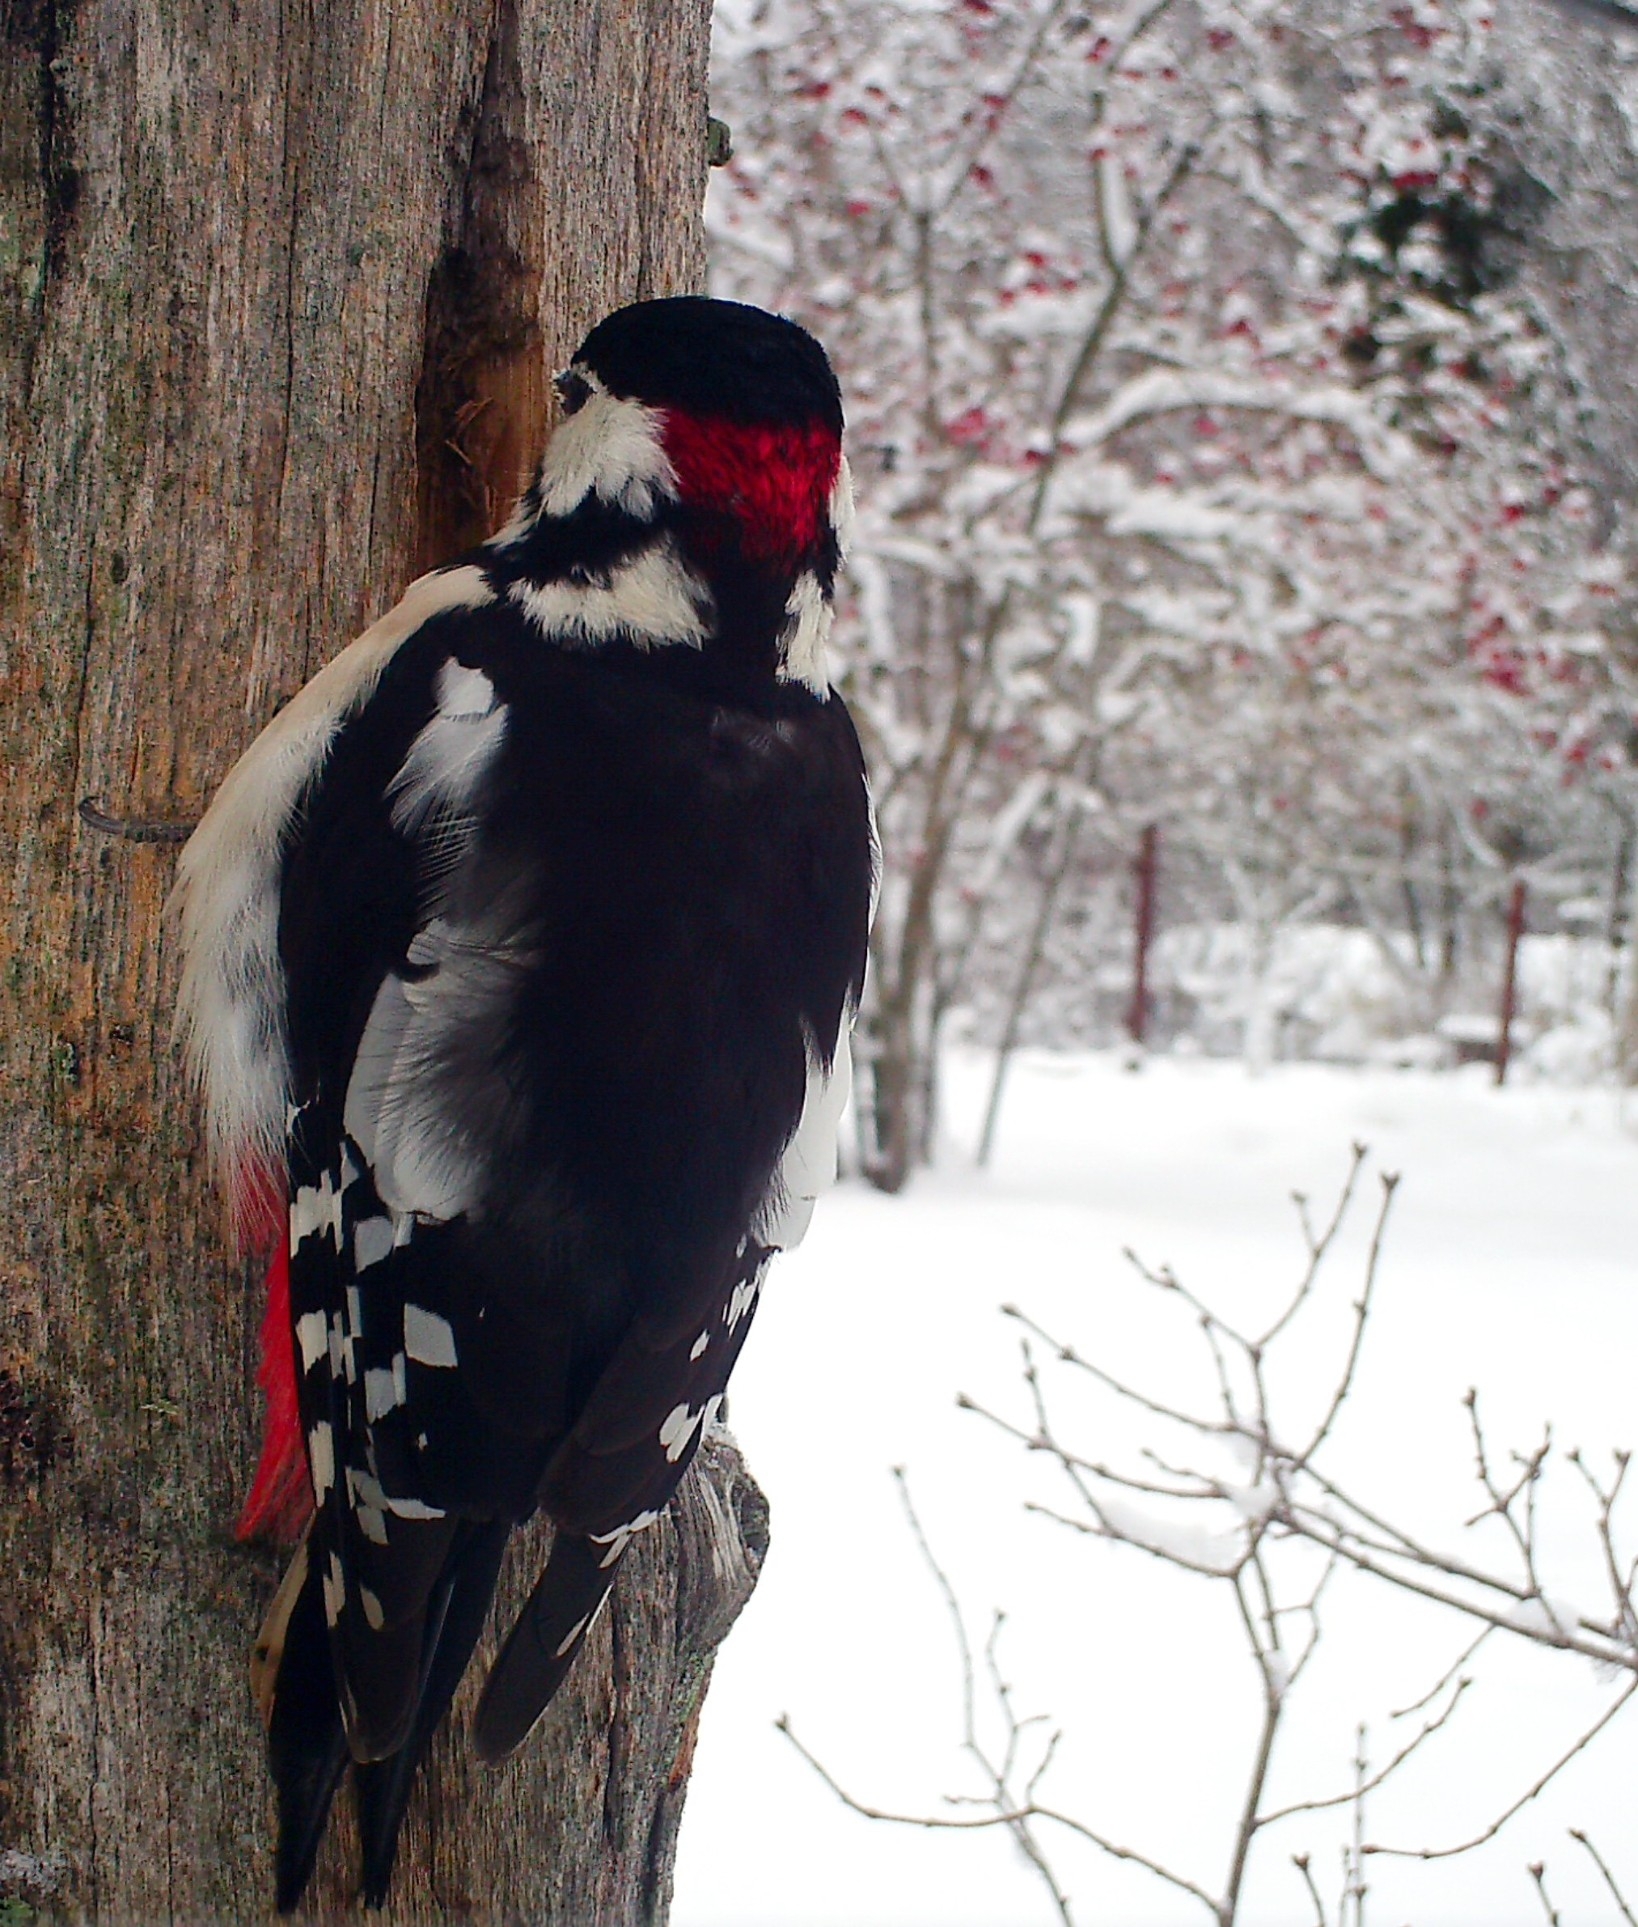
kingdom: Animalia
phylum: Chordata
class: Aves
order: Piciformes
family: Picidae
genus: Dendrocopos
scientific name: Dendrocopos major
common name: Great spotted woodpecker
